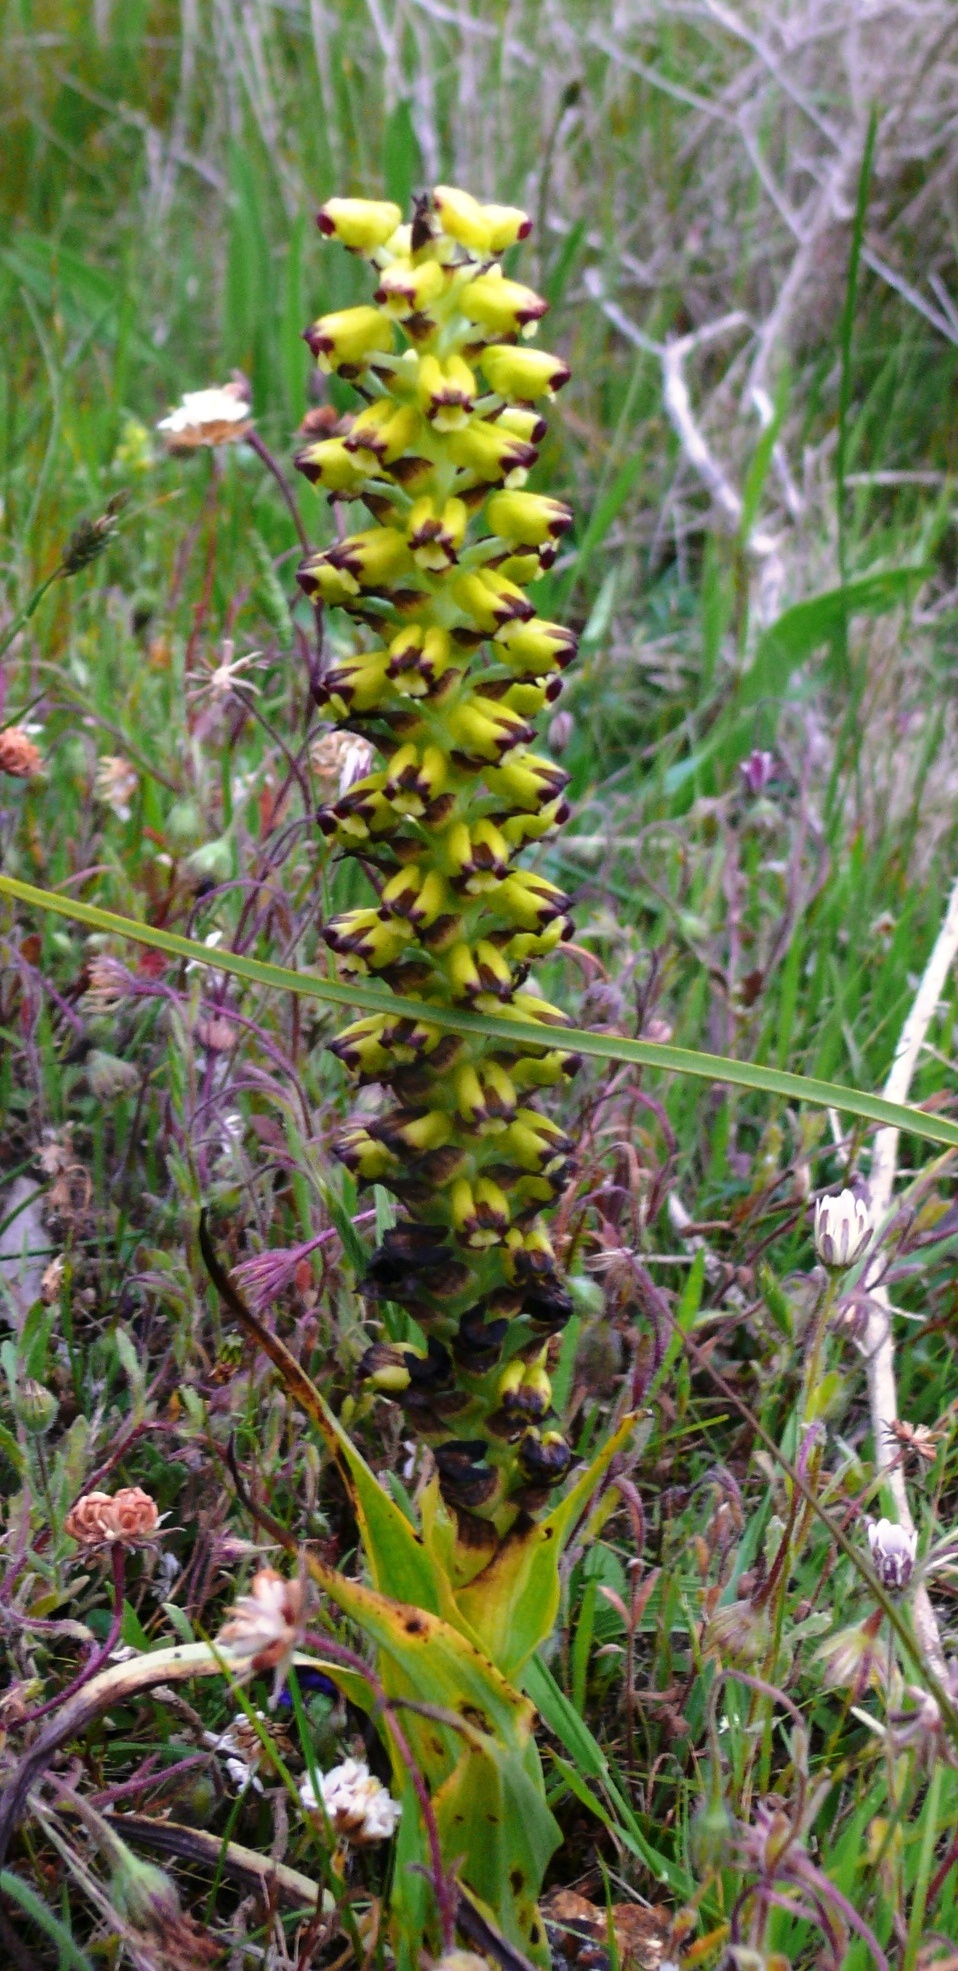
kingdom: Plantae
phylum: Tracheophyta
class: Liliopsida
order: Asparagales
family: Orchidaceae
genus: Corycium
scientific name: Corycium orobanchoides
